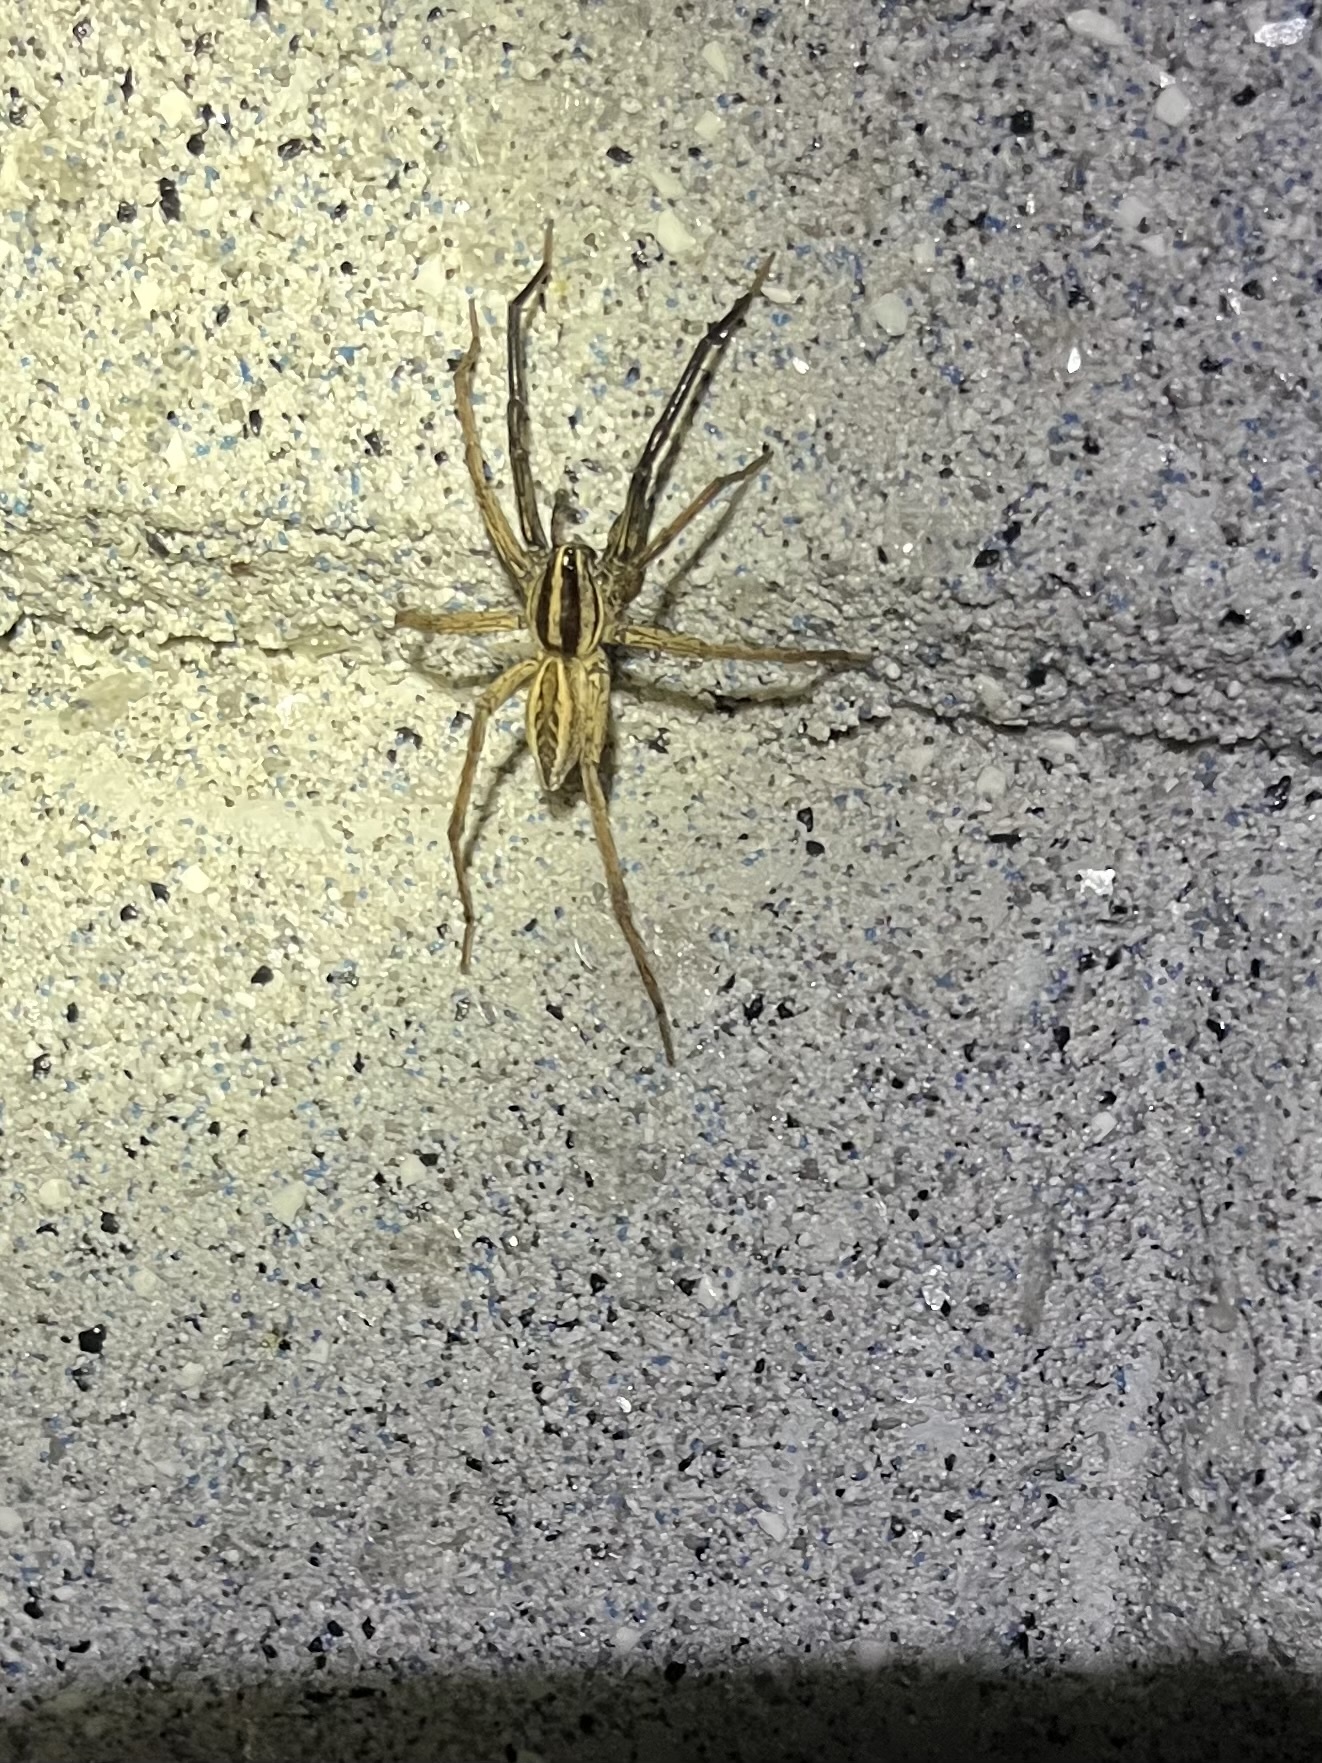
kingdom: Animalia
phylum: Arthropoda
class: Arachnida
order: Araneae
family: Lycosidae
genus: Rabidosa
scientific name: Rabidosa rabida
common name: Rabid wolf spider
